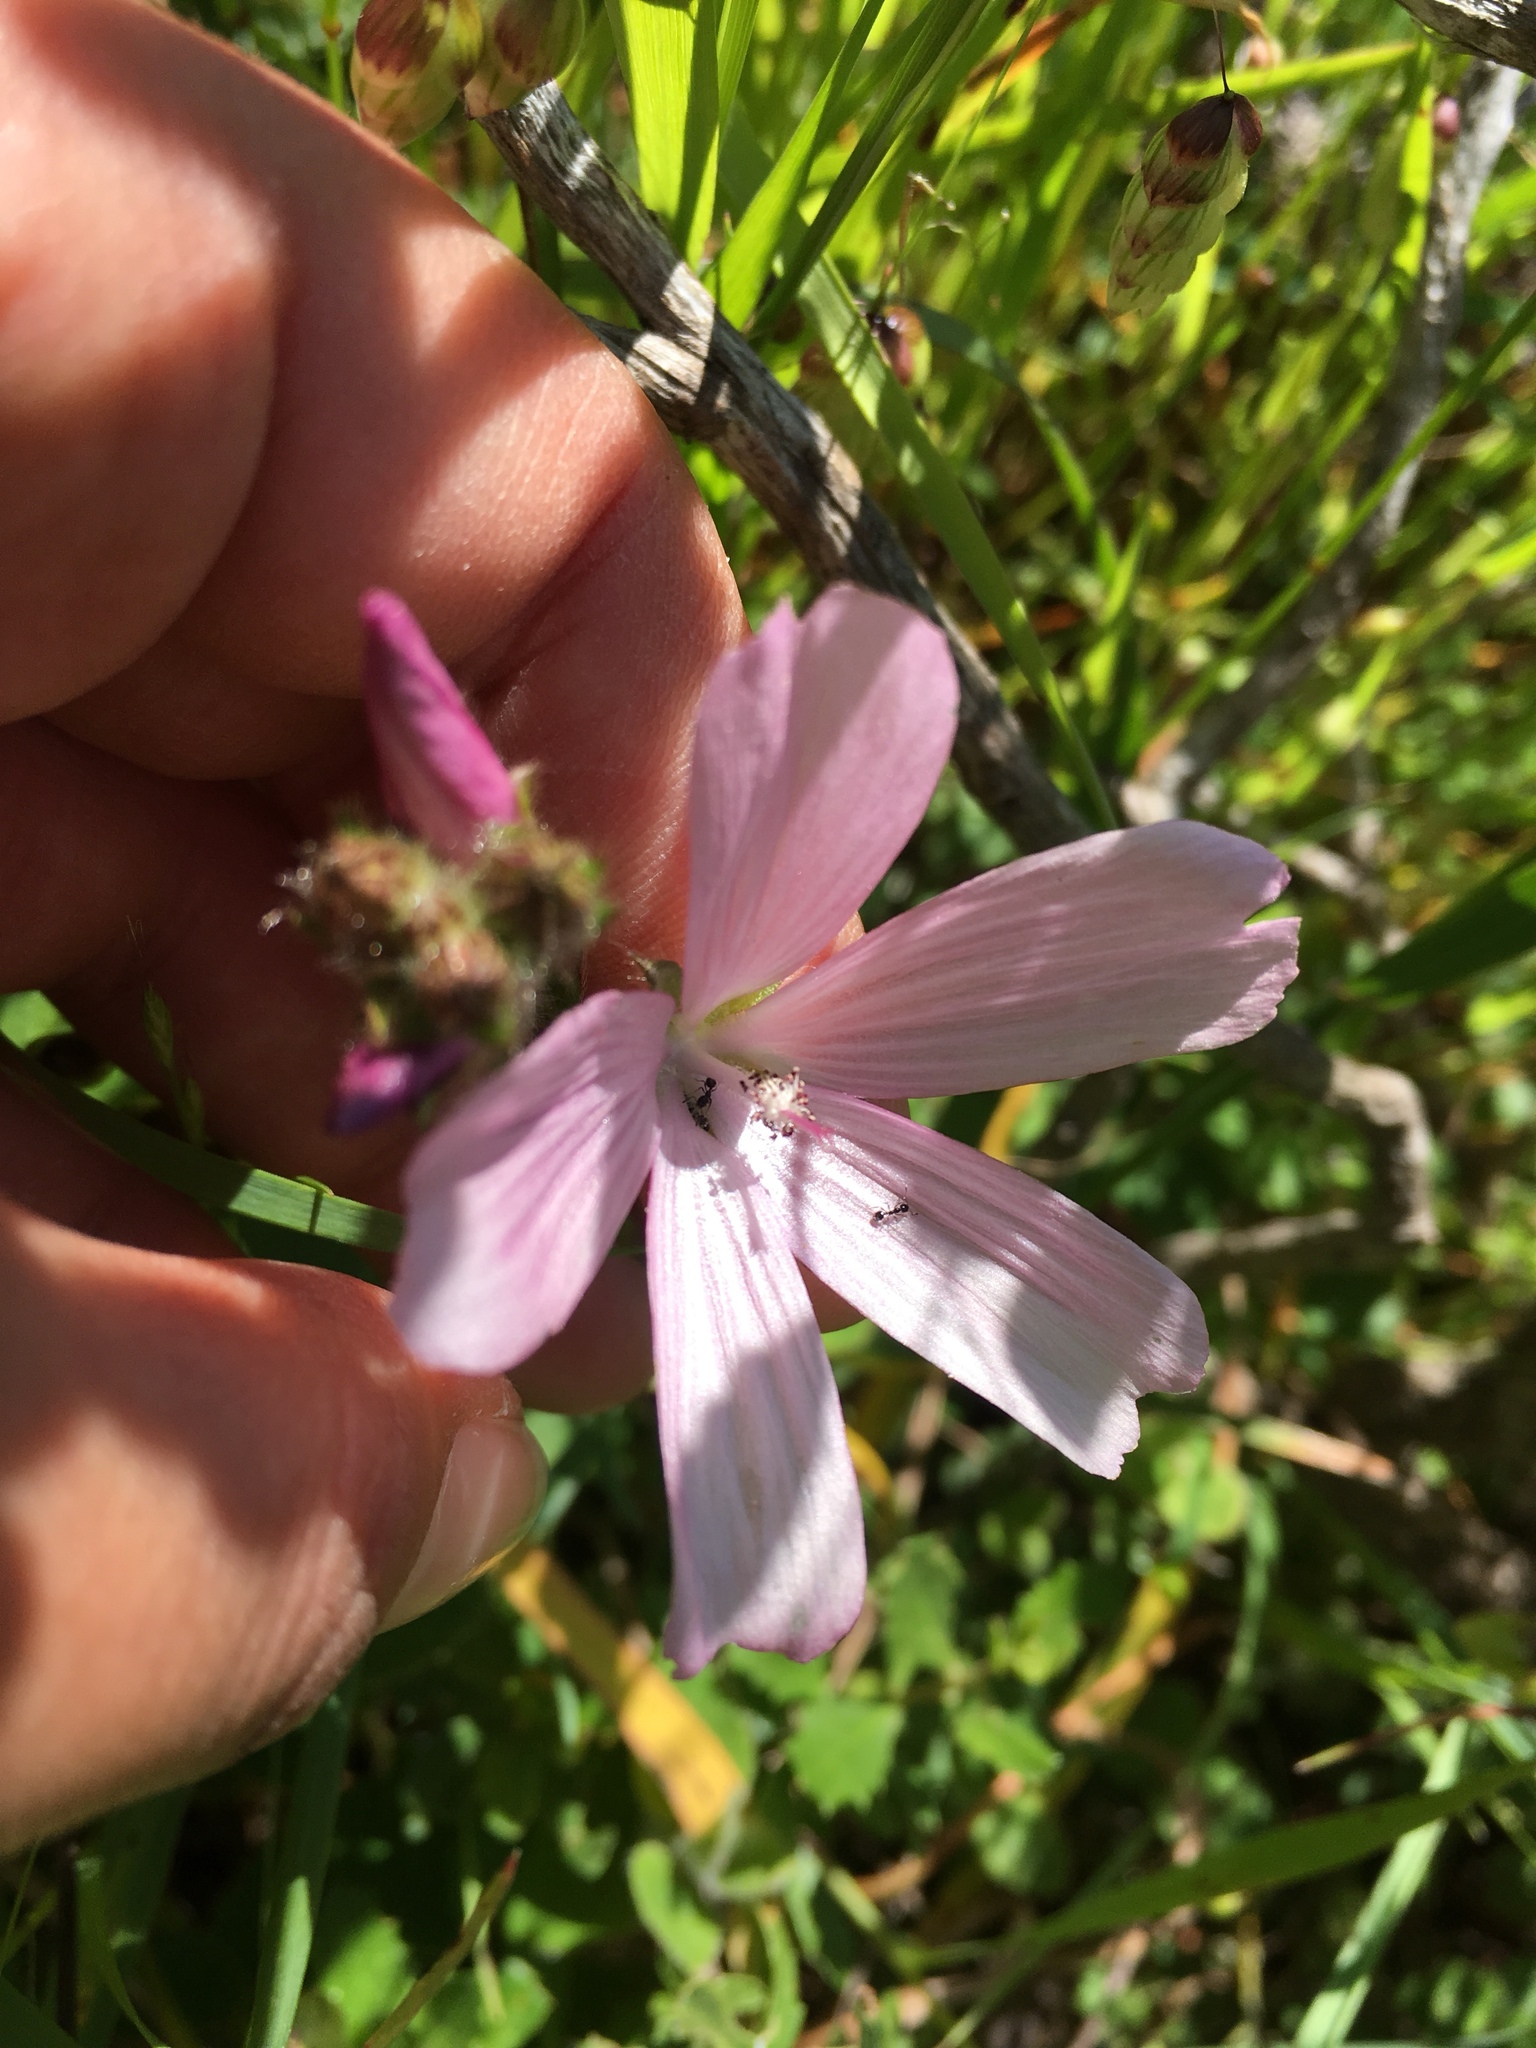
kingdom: Plantae
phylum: Tracheophyta
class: Magnoliopsida
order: Malvales
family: Malvaceae
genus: Sidalcea
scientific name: Sidalcea malviflora
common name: Greek mallow
